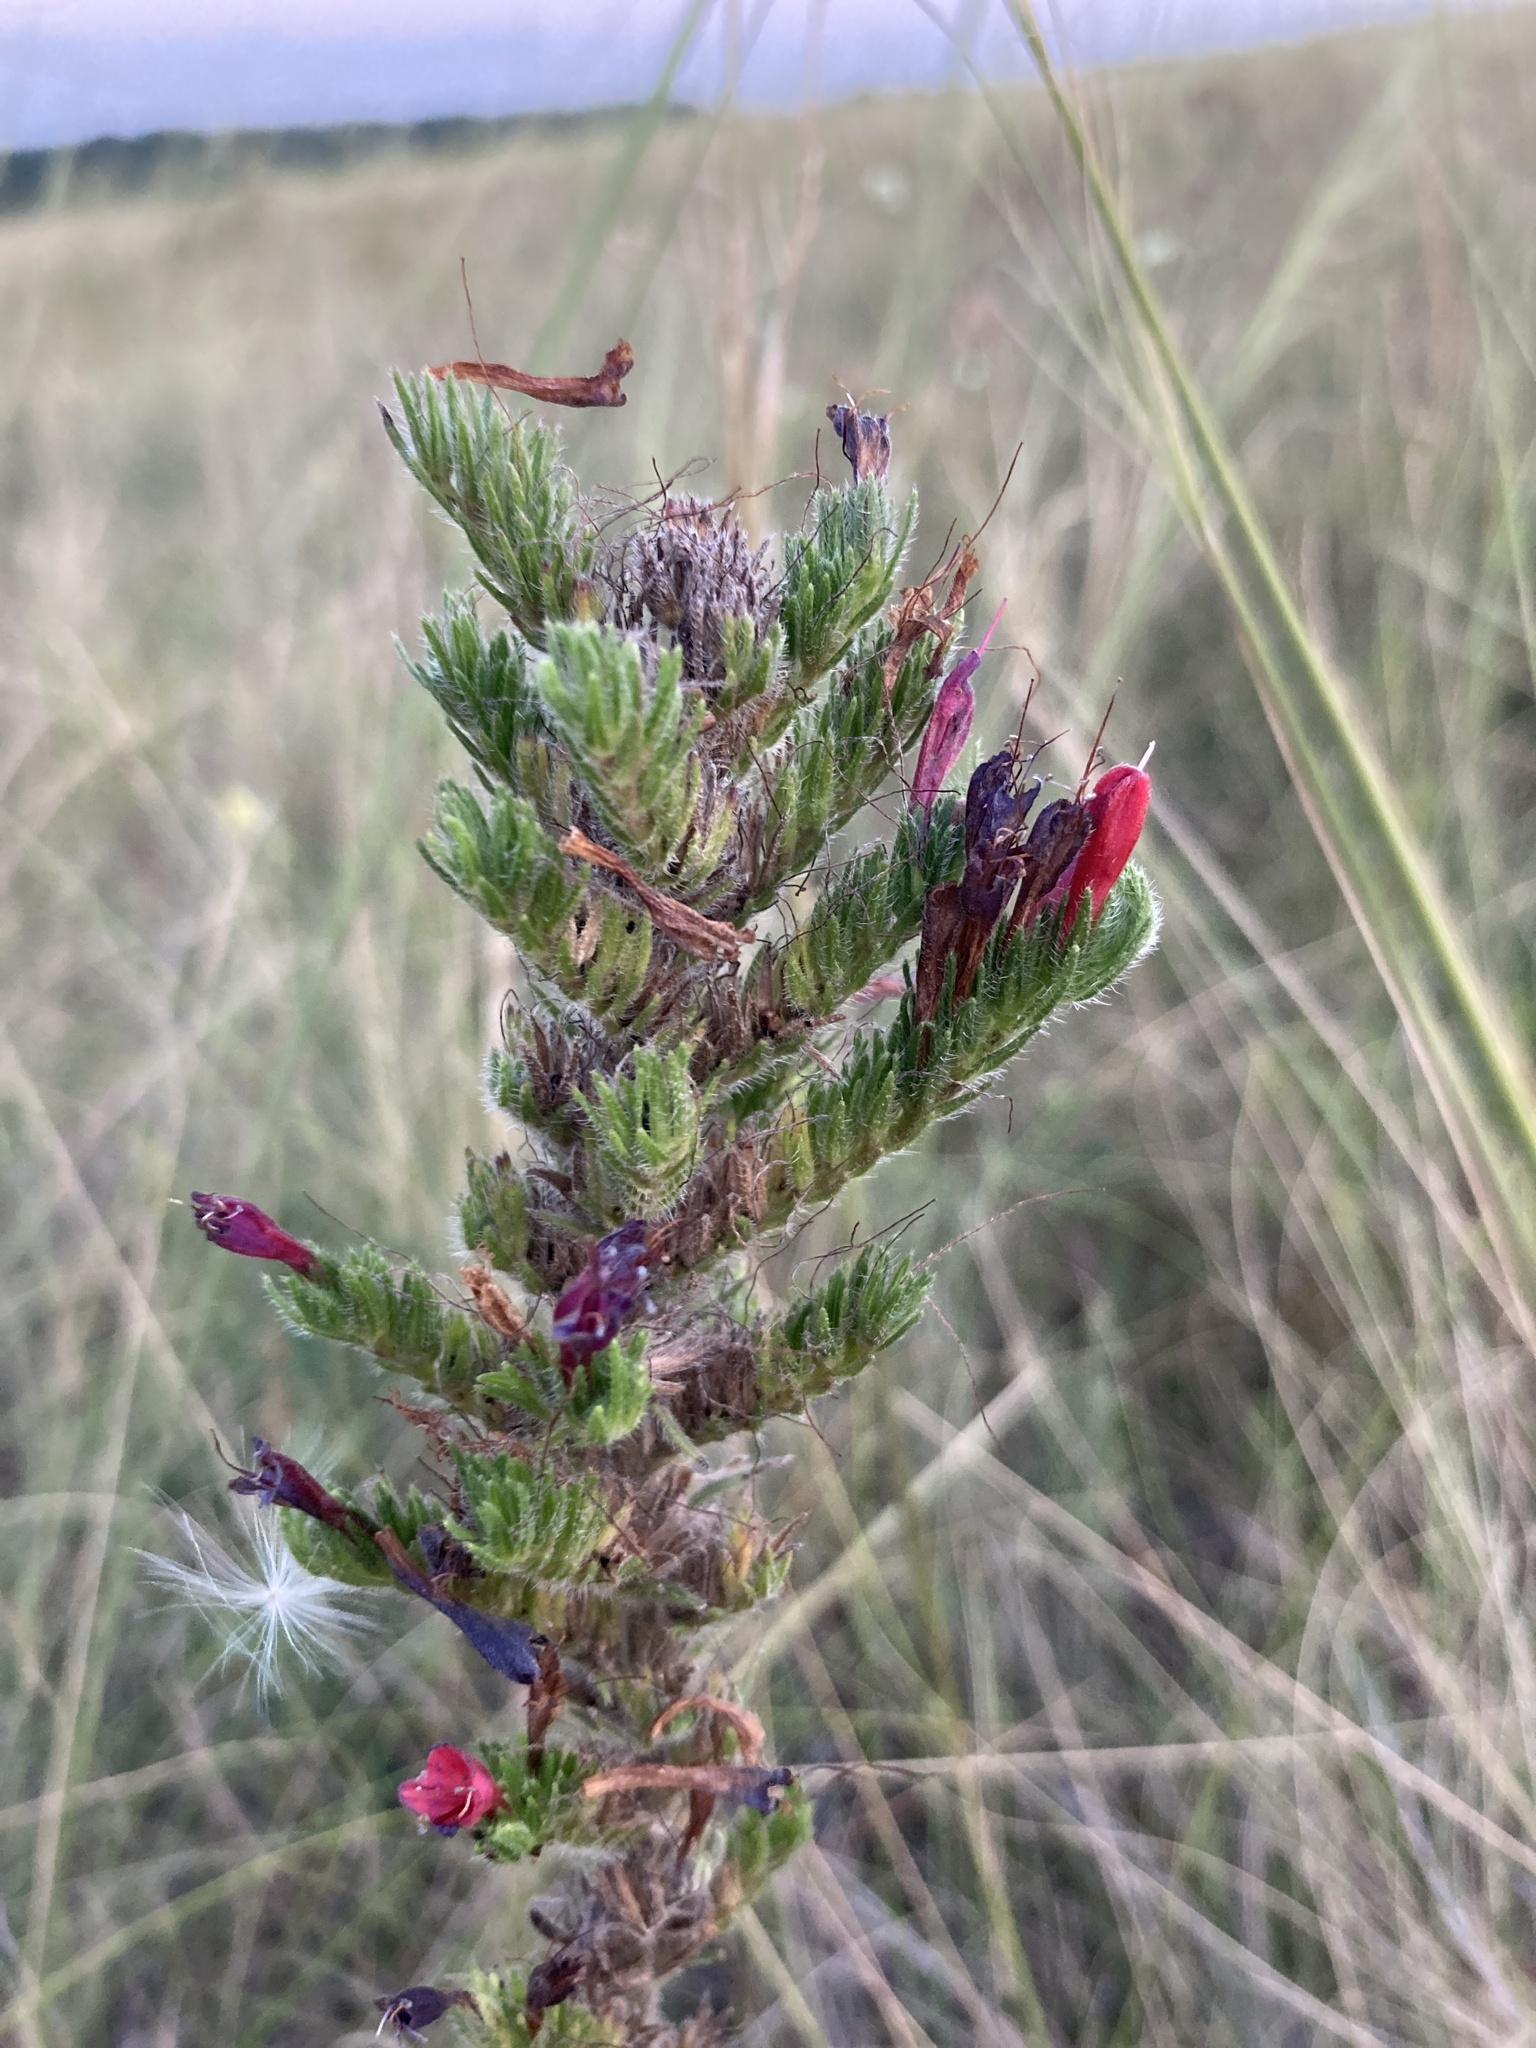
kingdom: Plantae
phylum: Tracheophyta
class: Magnoliopsida
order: Boraginales
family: Boraginaceae
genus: Echium
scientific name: Echium vulgare
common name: Common viper's bugloss
